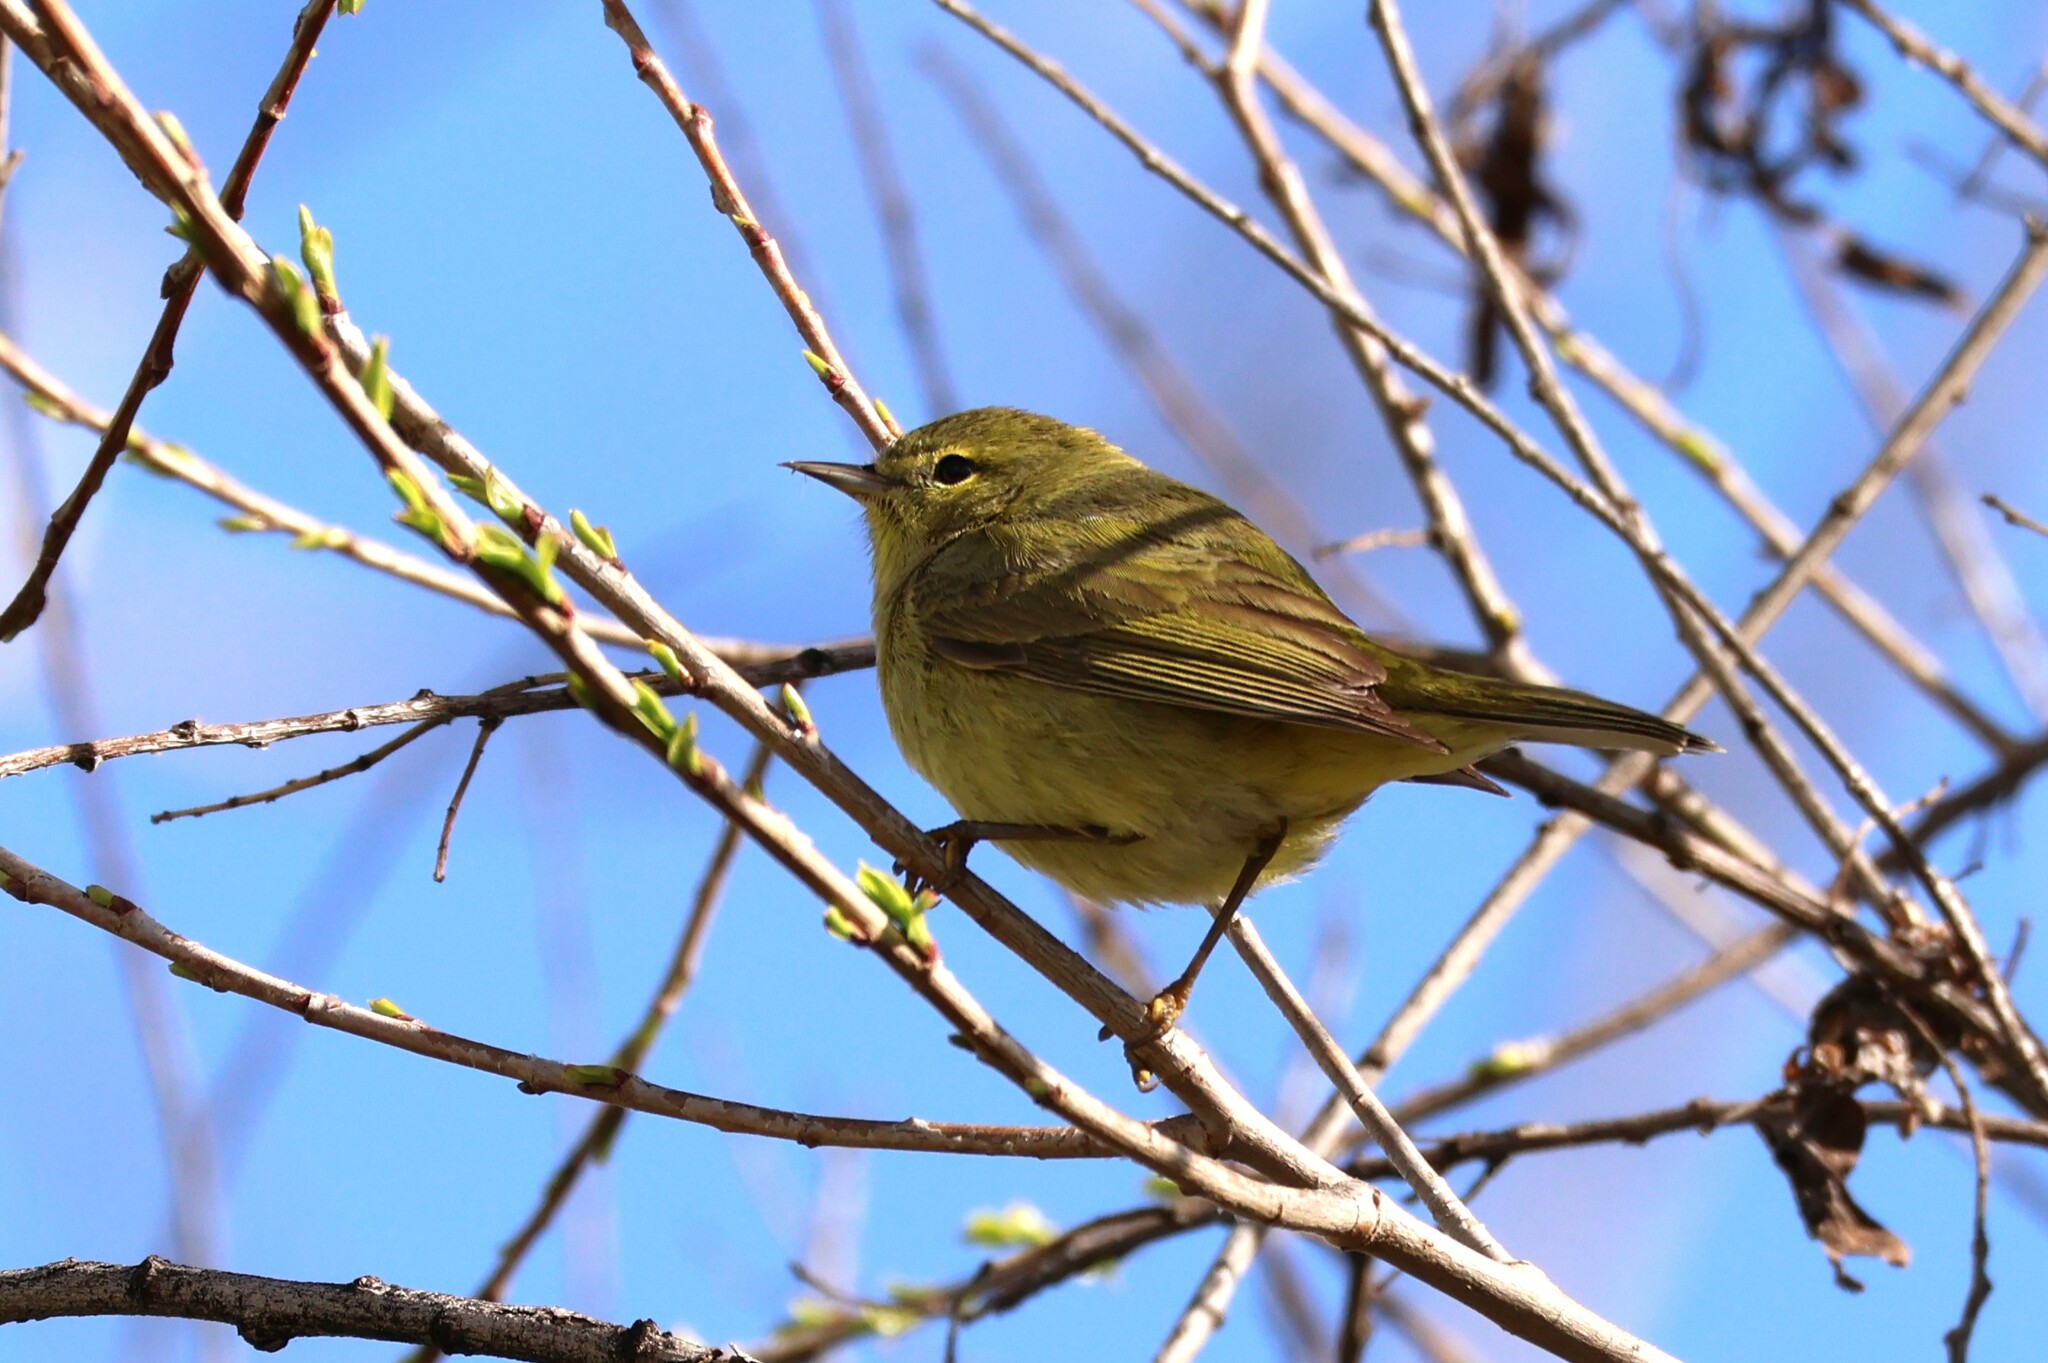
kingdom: Animalia
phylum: Chordata
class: Aves
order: Passeriformes
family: Parulidae
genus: Leiothlypis
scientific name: Leiothlypis celata
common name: Orange-crowned warbler
